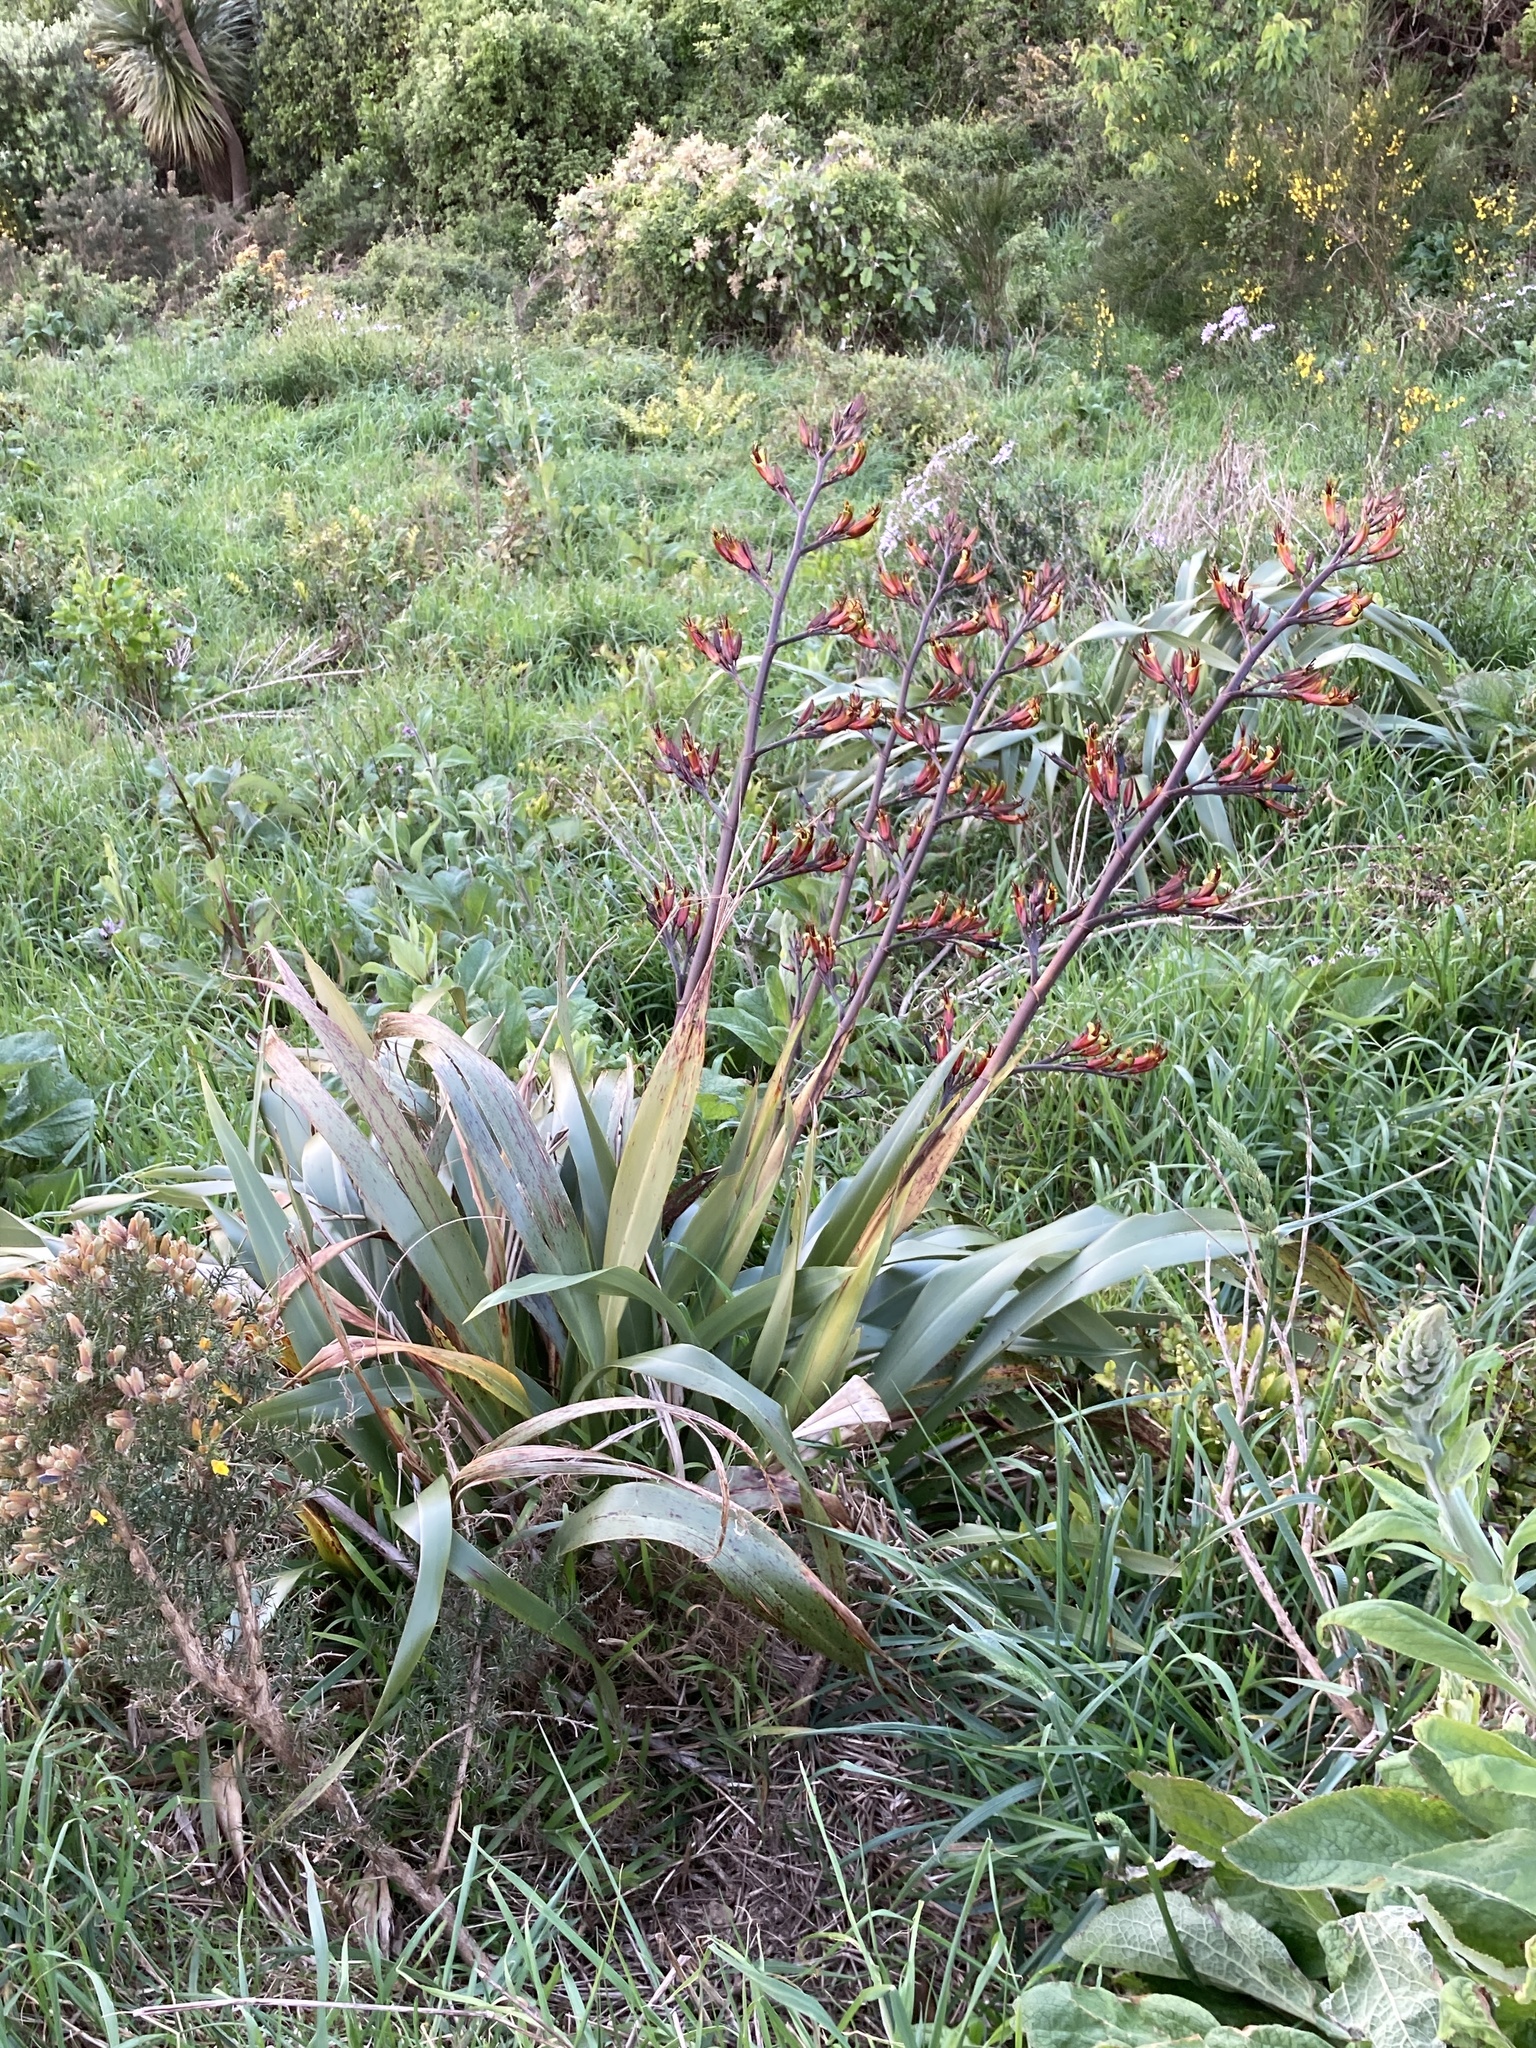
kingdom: Plantae
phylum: Tracheophyta
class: Liliopsida
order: Asparagales
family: Asphodelaceae
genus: Phormium
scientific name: Phormium tenax
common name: New zealand flax
